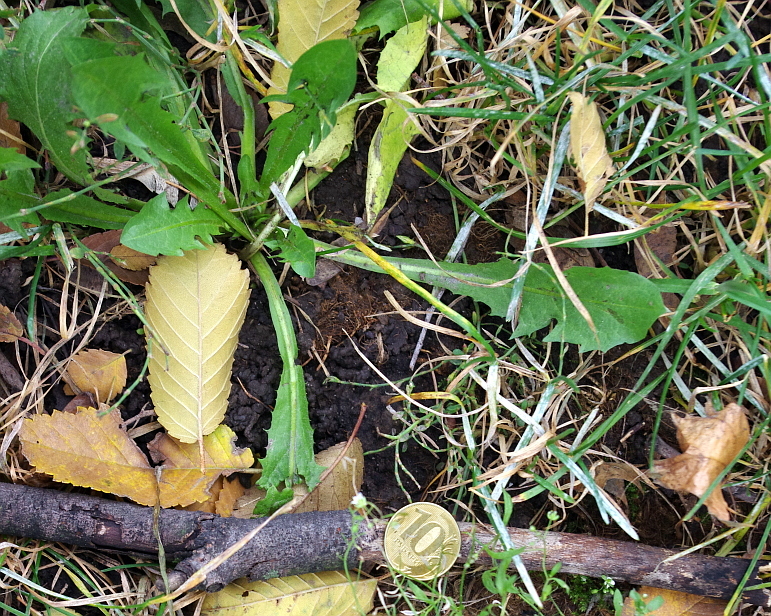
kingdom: Plantae
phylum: Tracheophyta
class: Magnoliopsida
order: Asterales
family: Asteraceae
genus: Taraxacum
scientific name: Taraxacum officinale
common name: Common dandelion
